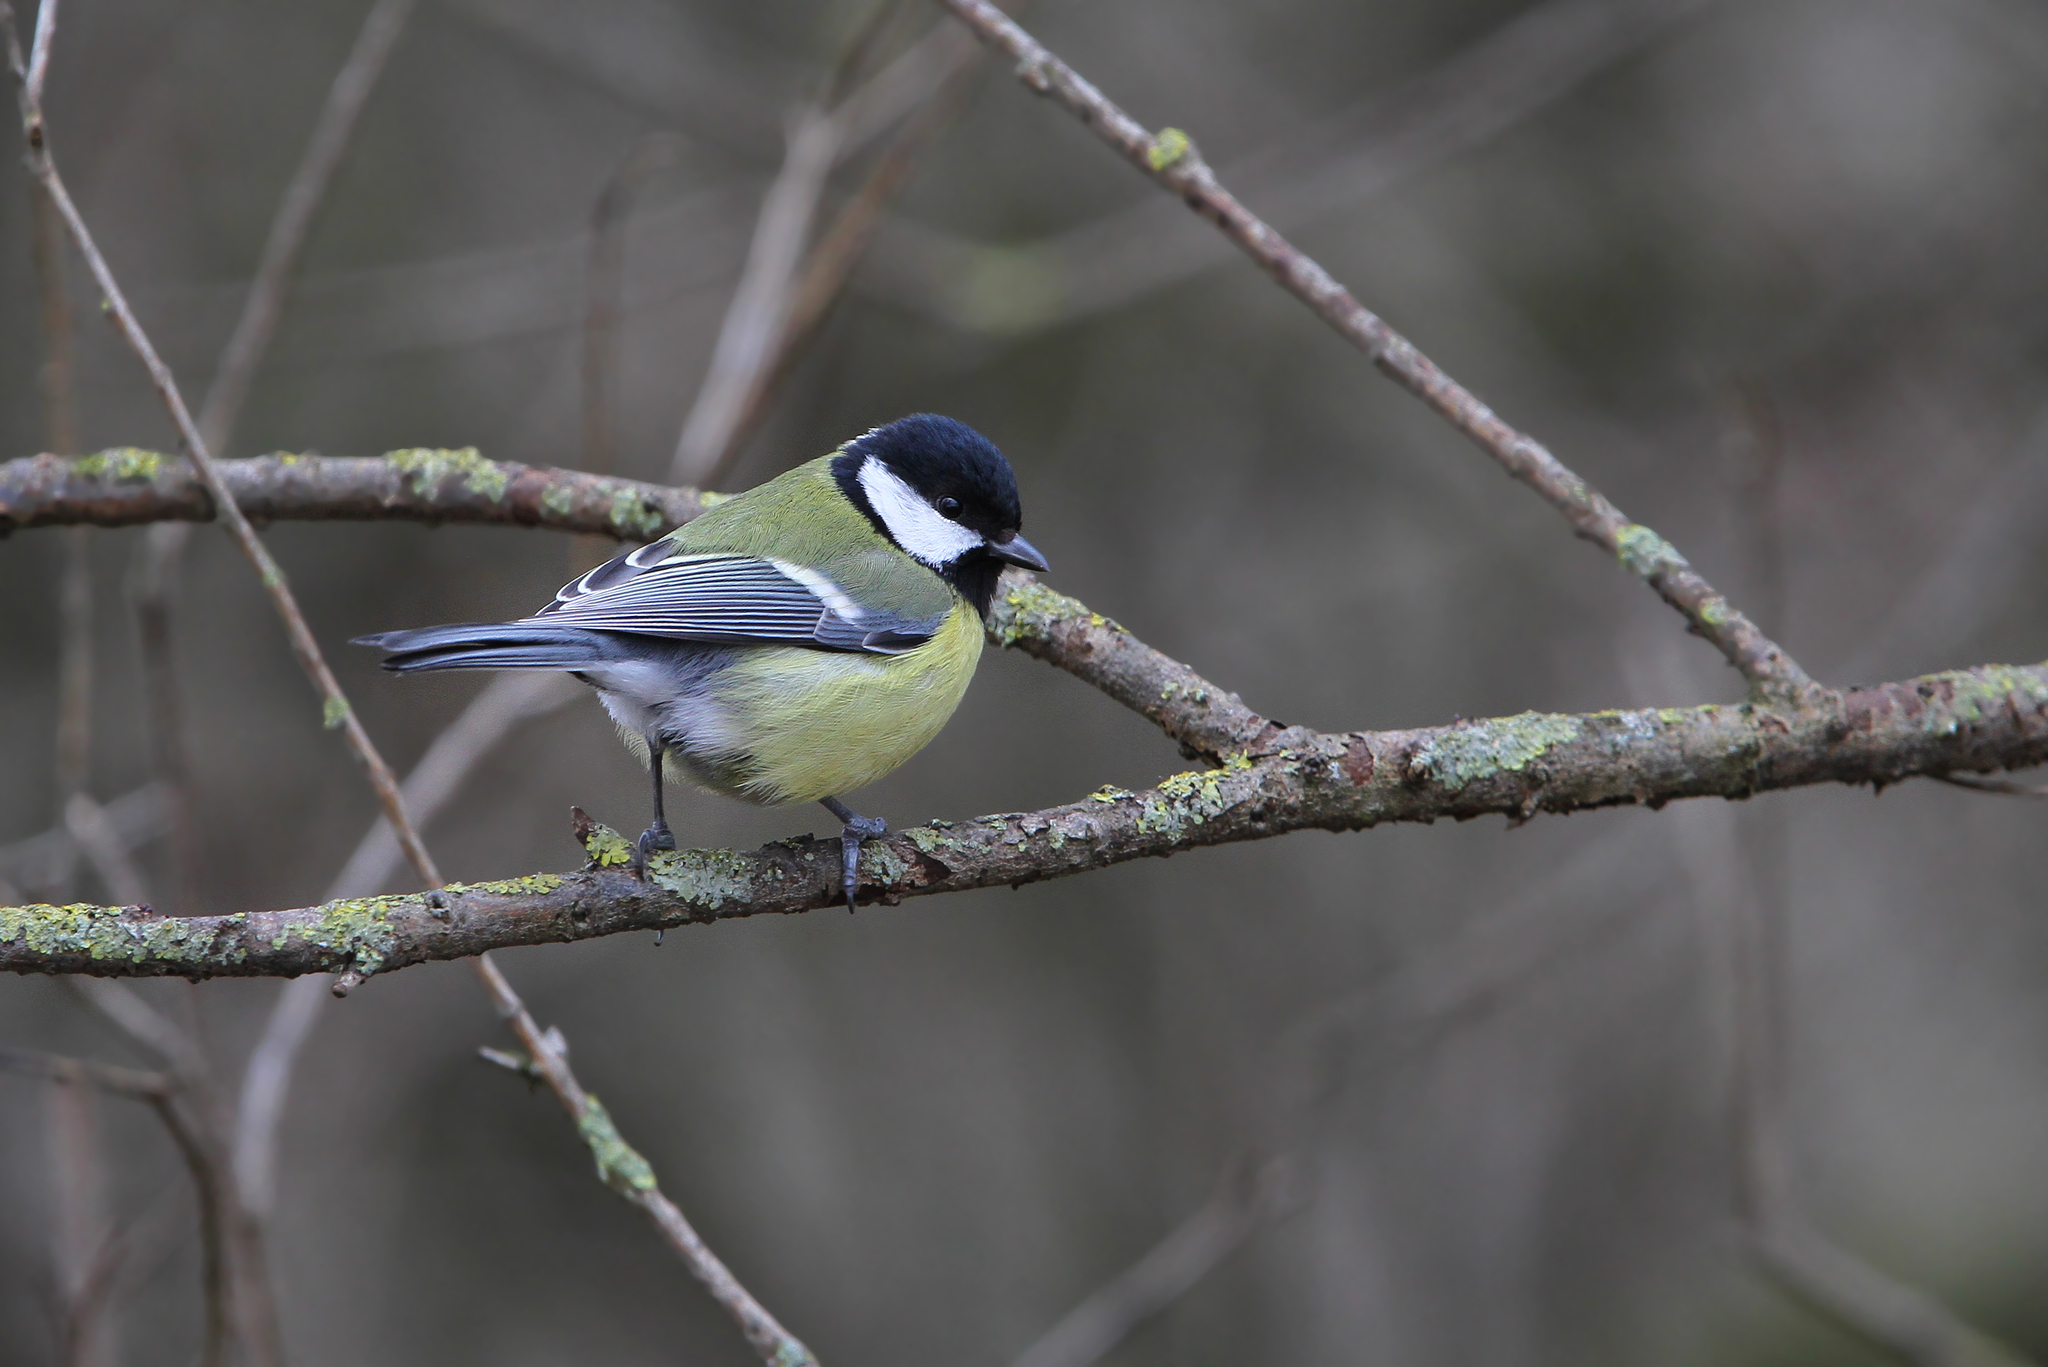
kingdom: Animalia
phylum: Chordata
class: Aves
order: Passeriformes
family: Paridae
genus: Parus
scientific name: Parus major
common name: Great tit
